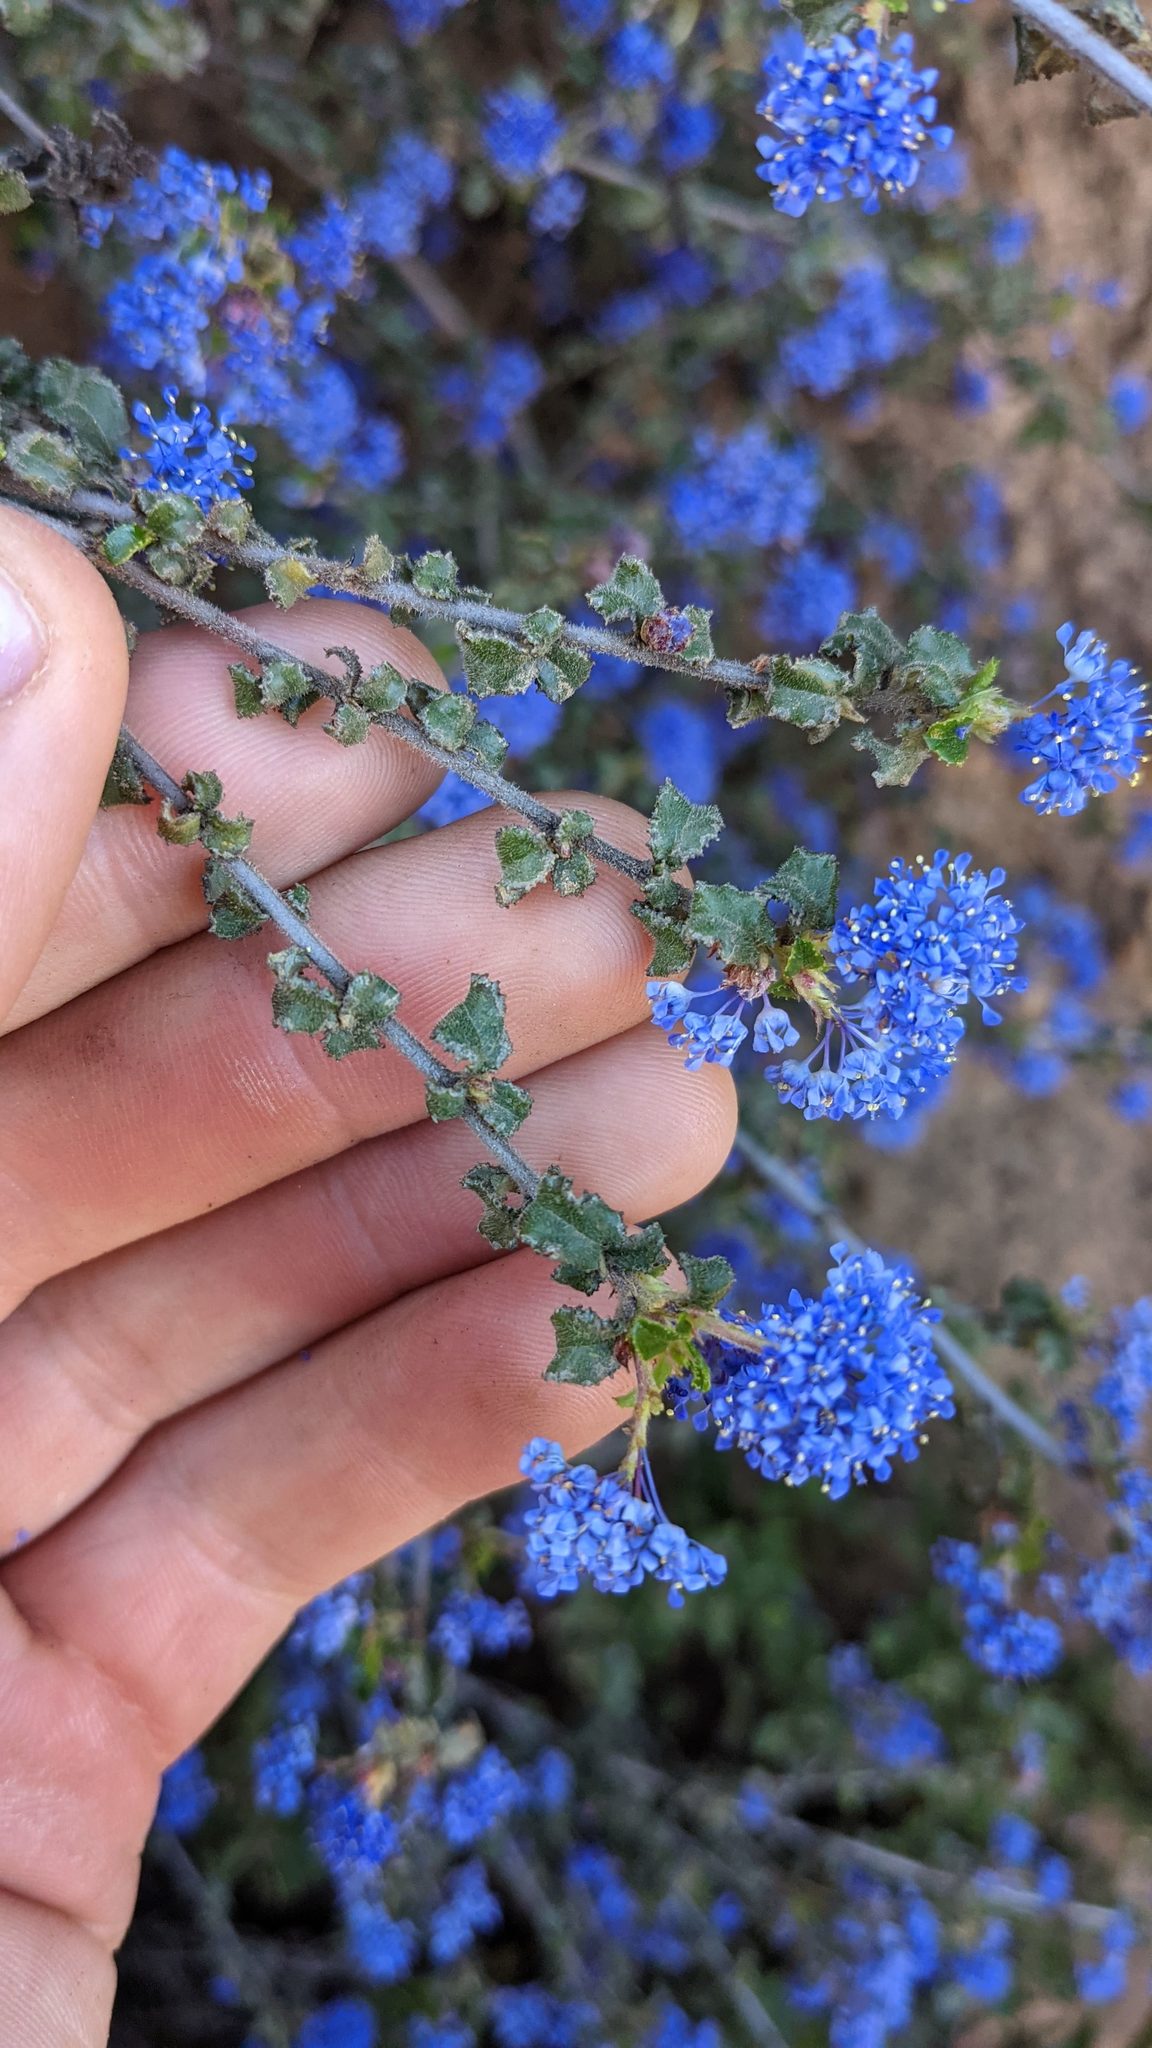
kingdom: Plantae
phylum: Tracheophyta
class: Magnoliopsida
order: Rosales
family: Rhamnaceae
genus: Ceanothus
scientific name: Ceanothus foliosus
